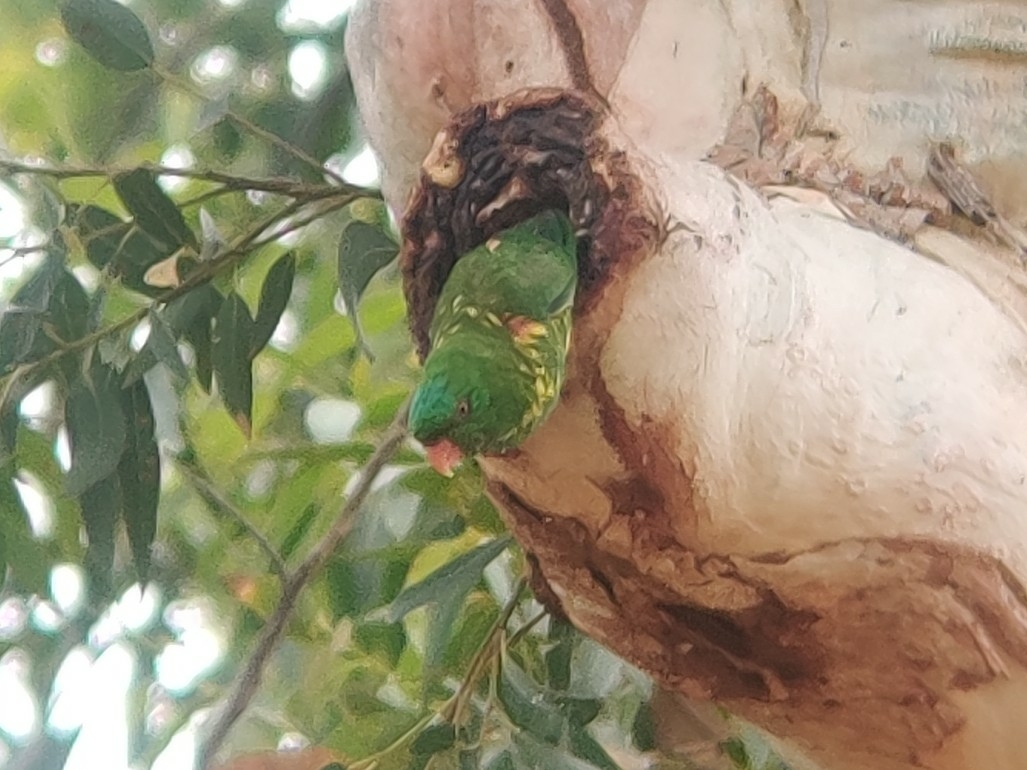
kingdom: Animalia
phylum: Chordata
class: Aves
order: Psittaciformes
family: Psittacidae
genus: Trichoglossus
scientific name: Trichoglossus chlorolepidotus
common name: Scaly-breasted lorikeet
